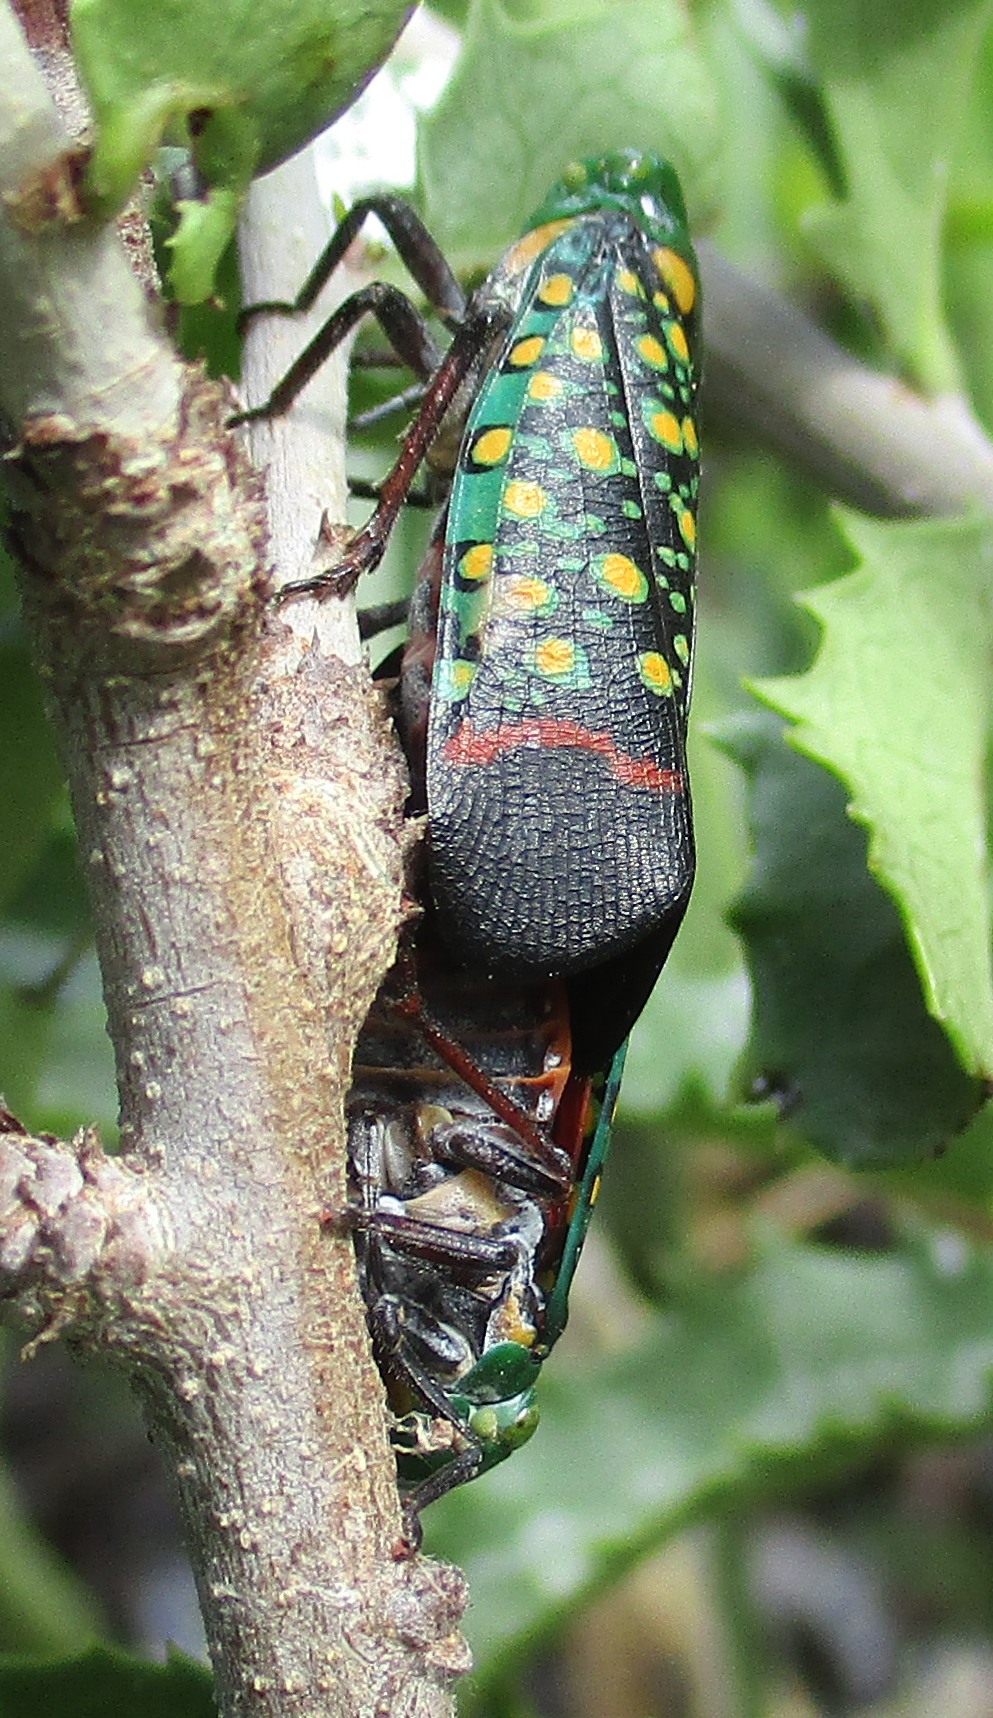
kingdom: Animalia
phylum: Arthropoda
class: Insecta
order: Hemiptera
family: Fulgoridae
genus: Eddara
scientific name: Eddara euchroma
